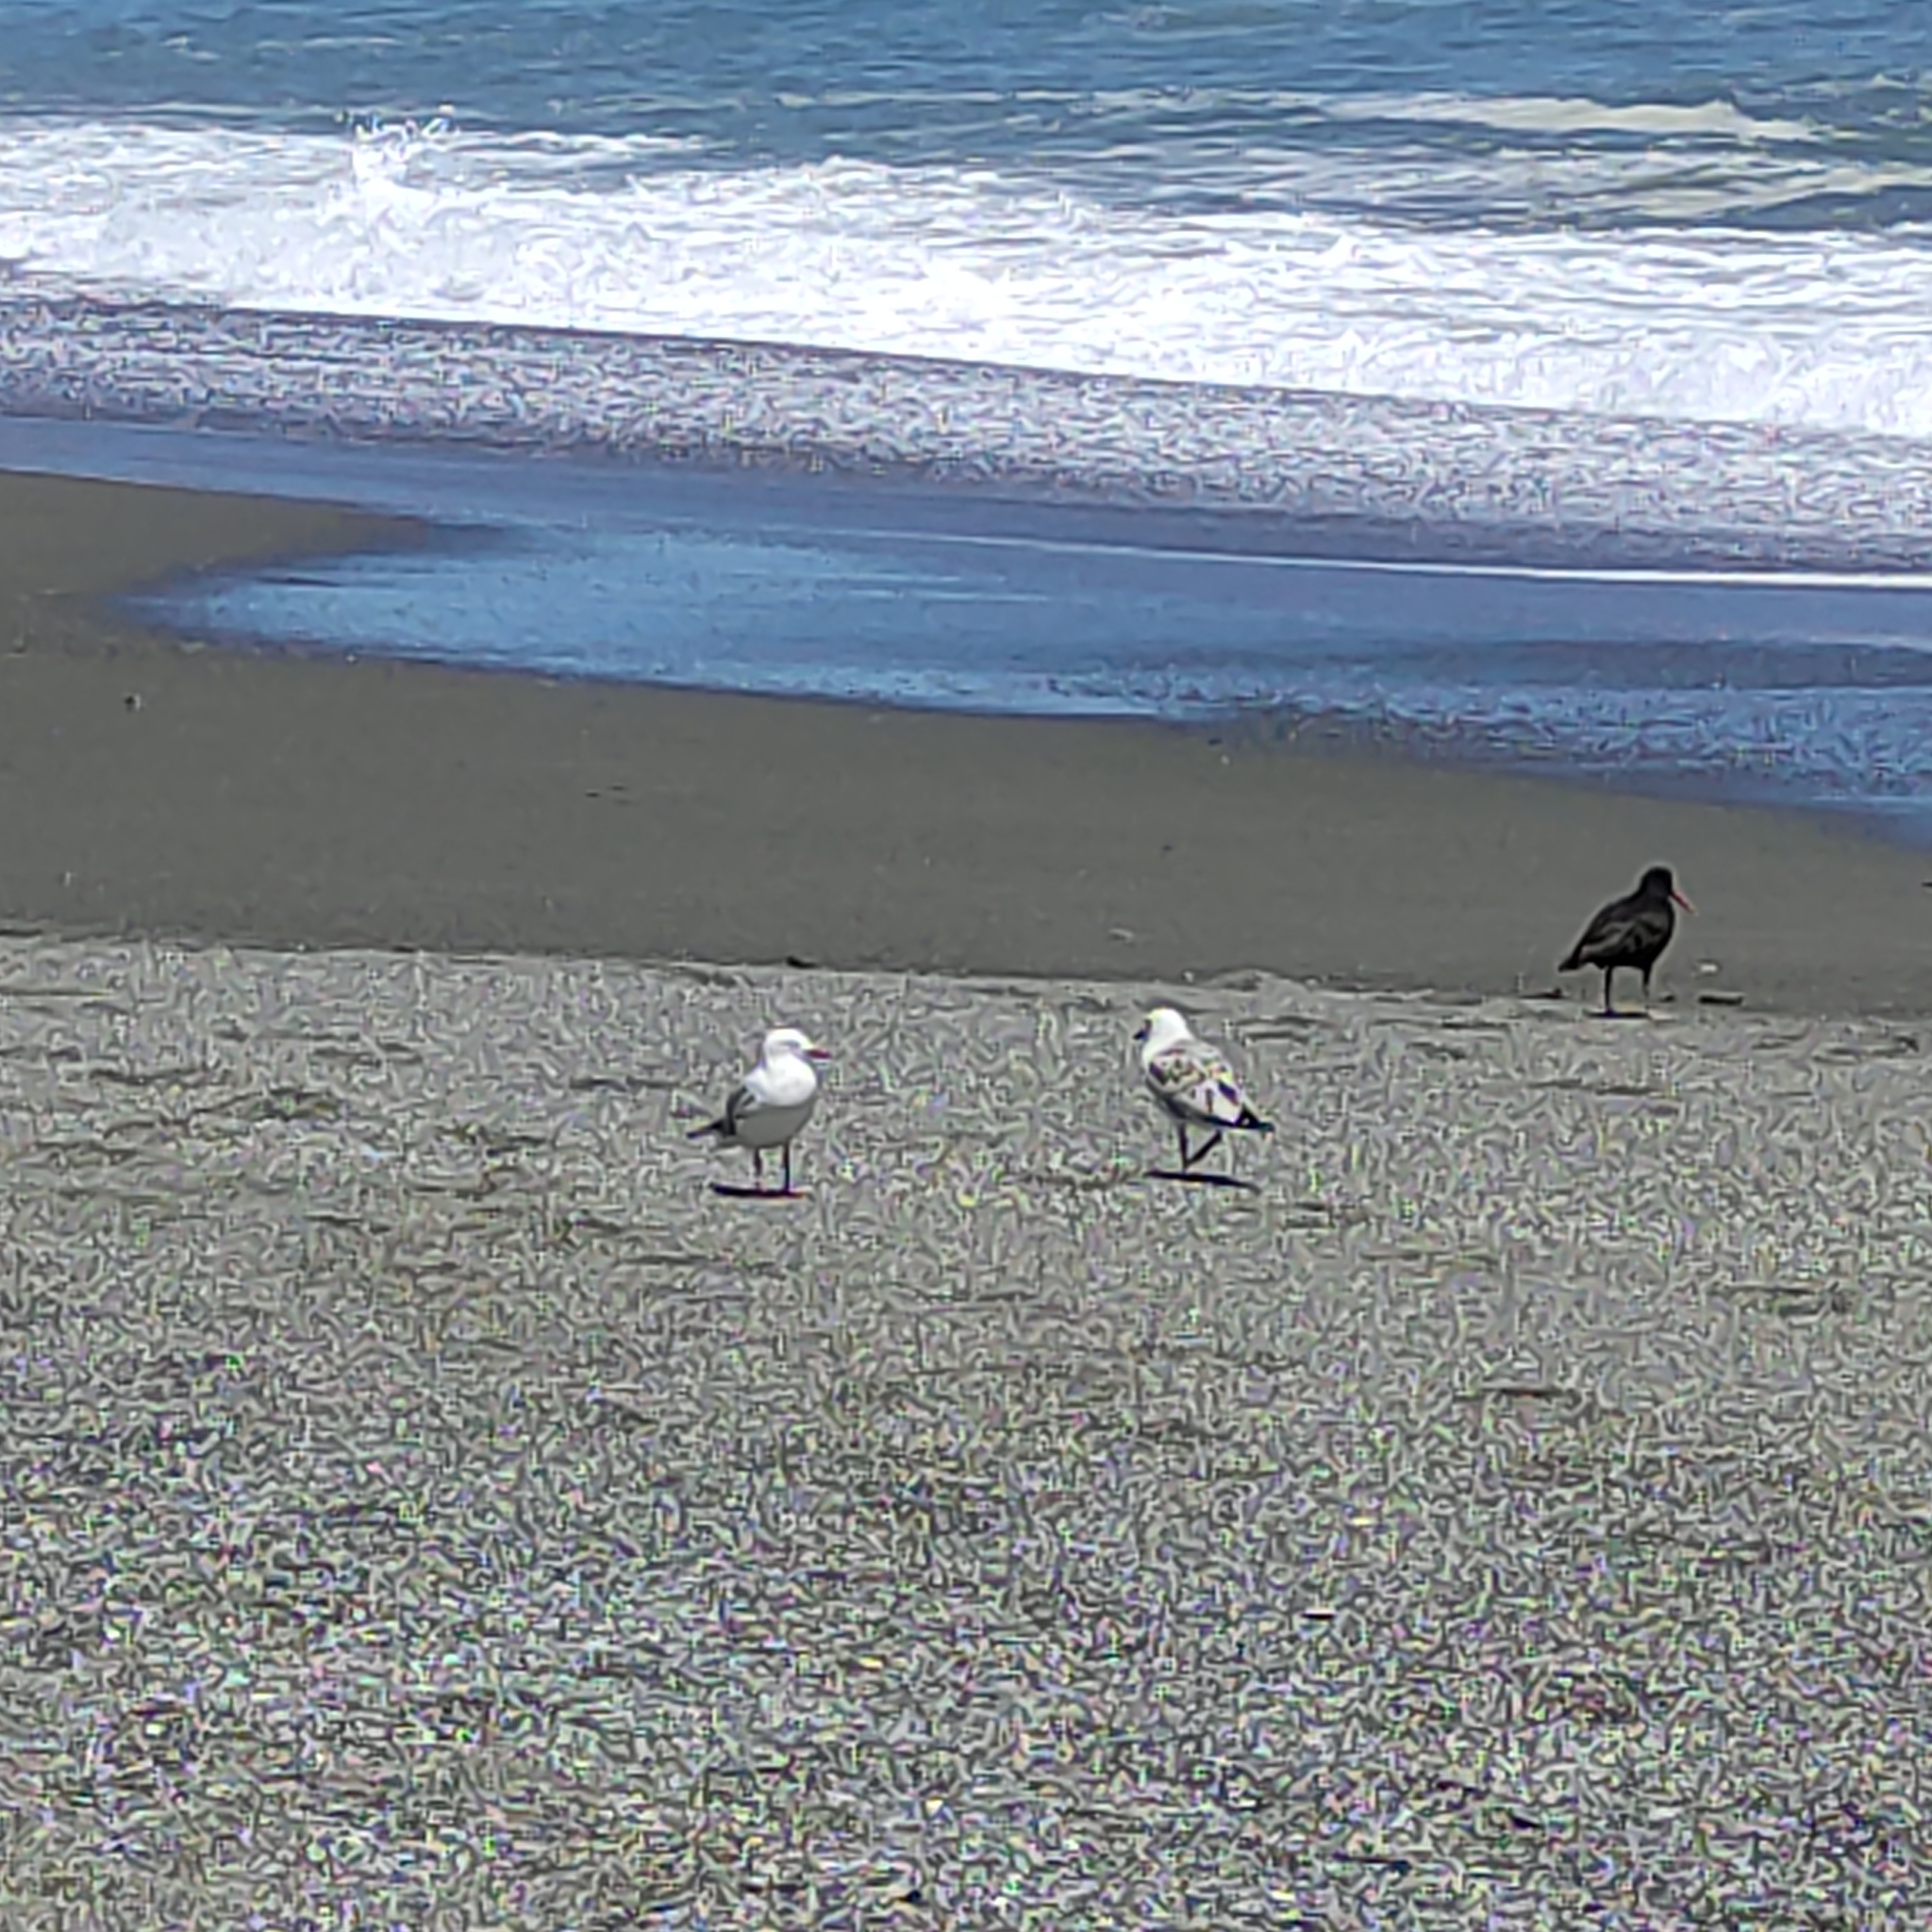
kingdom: Animalia
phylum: Chordata
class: Aves
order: Charadriiformes
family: Laridae
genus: Chroicocephalus
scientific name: Chroicocephalus novaehollandiae
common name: Silver gull
